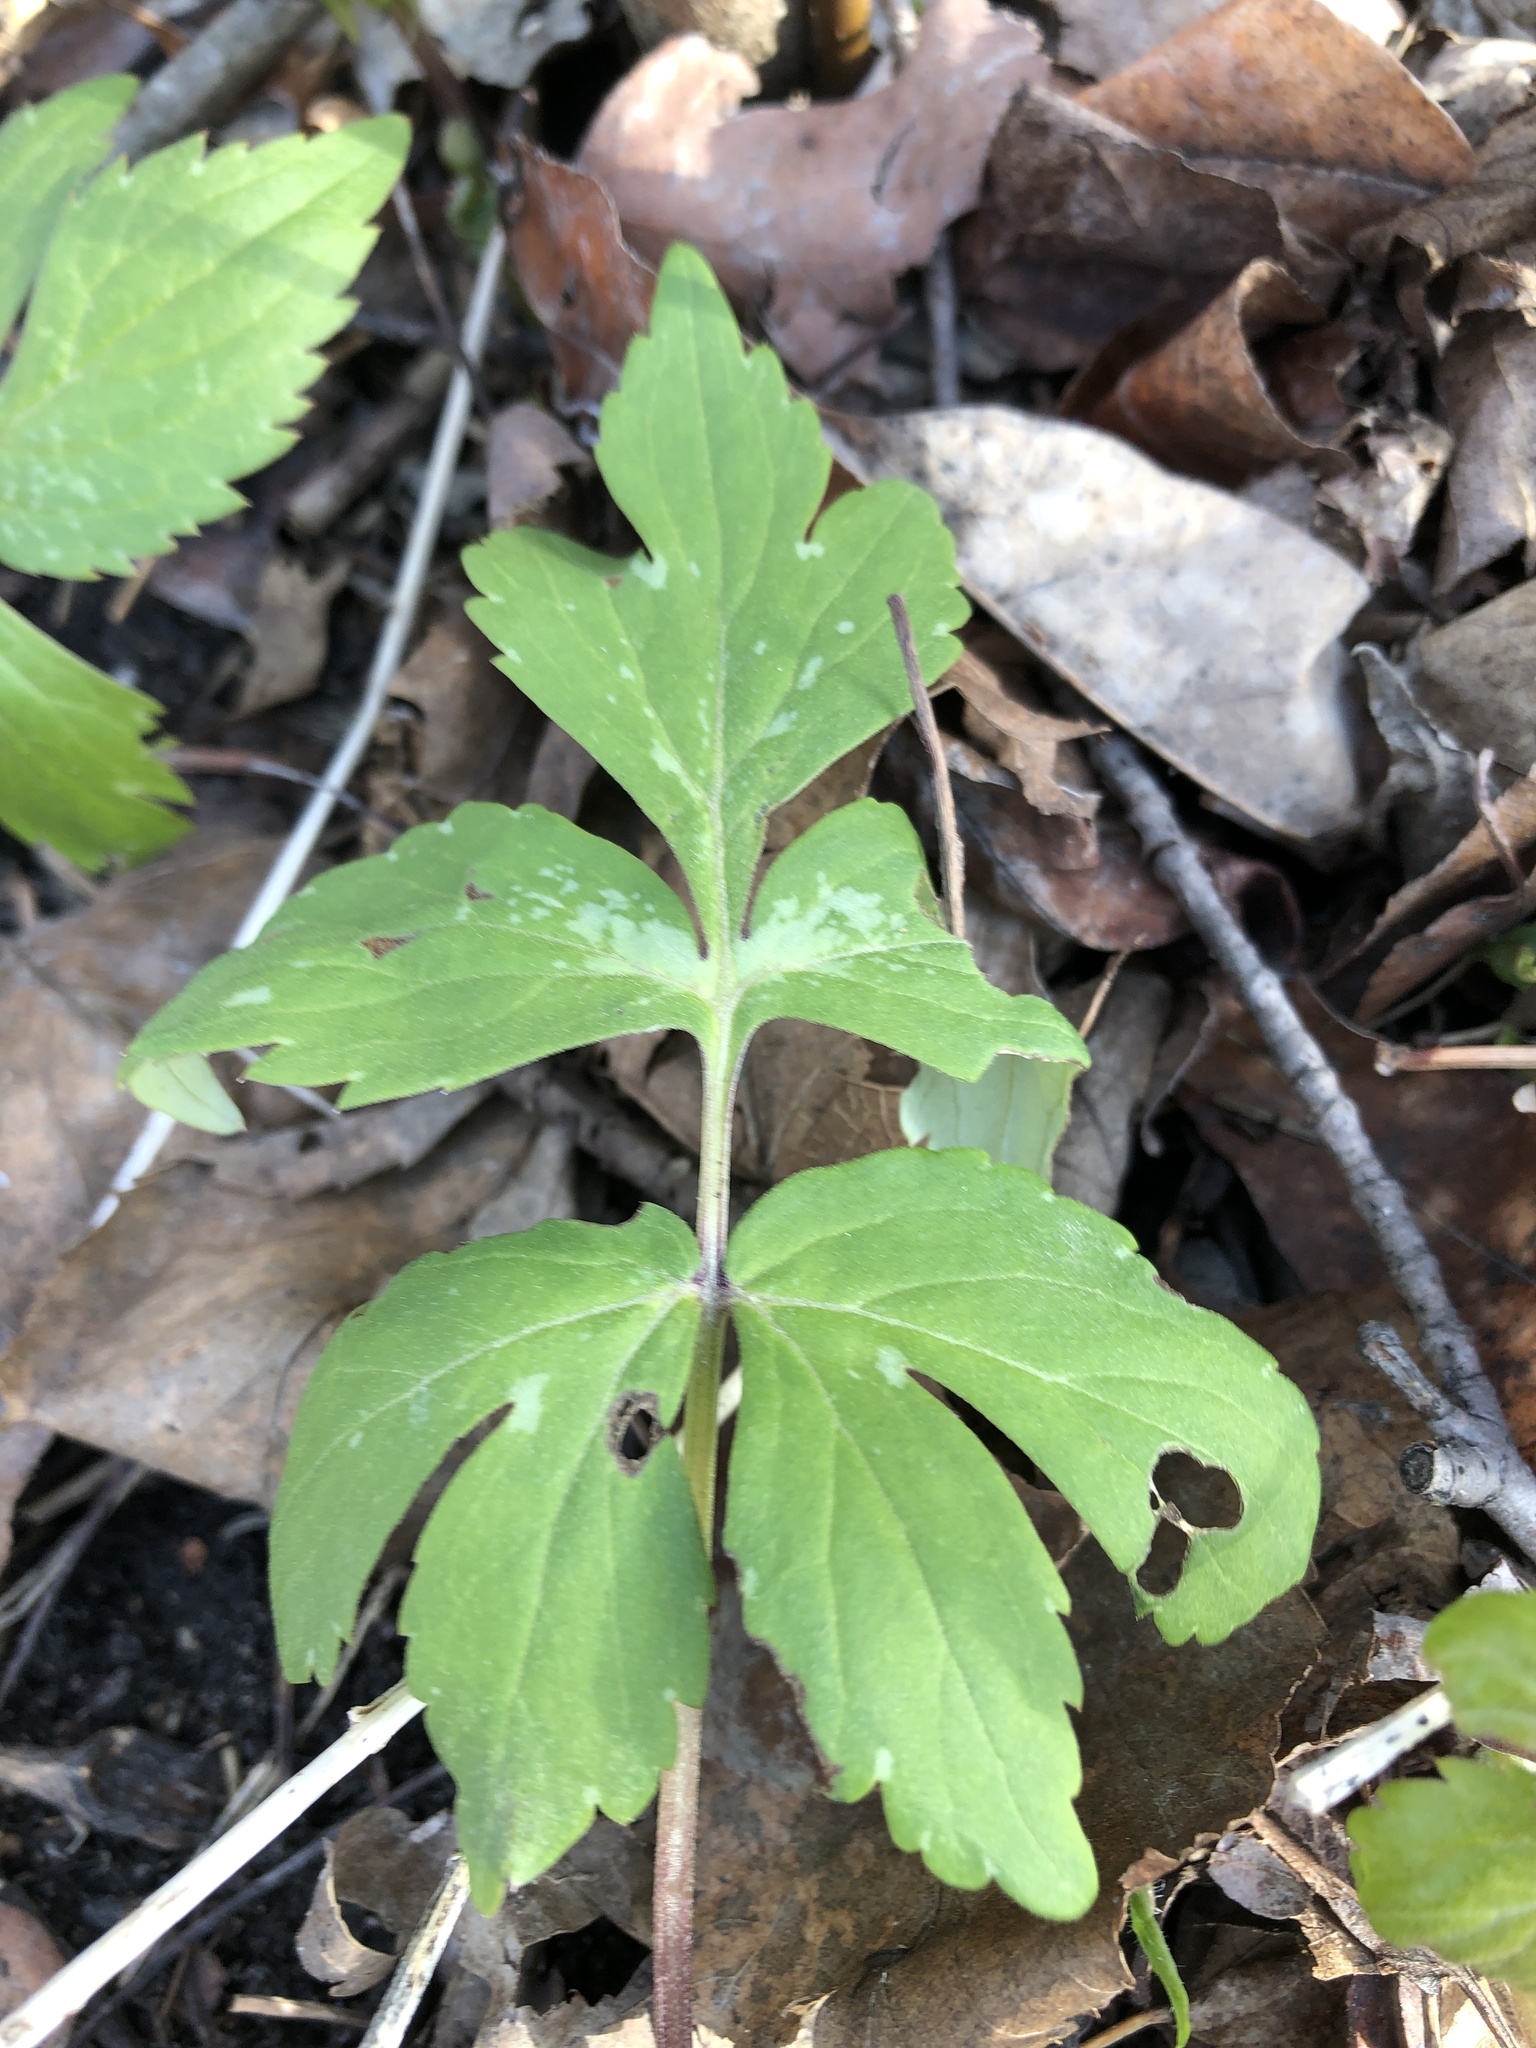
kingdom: Plantae
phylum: Tracheophyta
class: Magnoliopsida
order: Boraginales
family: Hydrophyllaceae
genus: Hydrophyllum
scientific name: Hydrophyllum virginianum
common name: Virginia waterleaf
